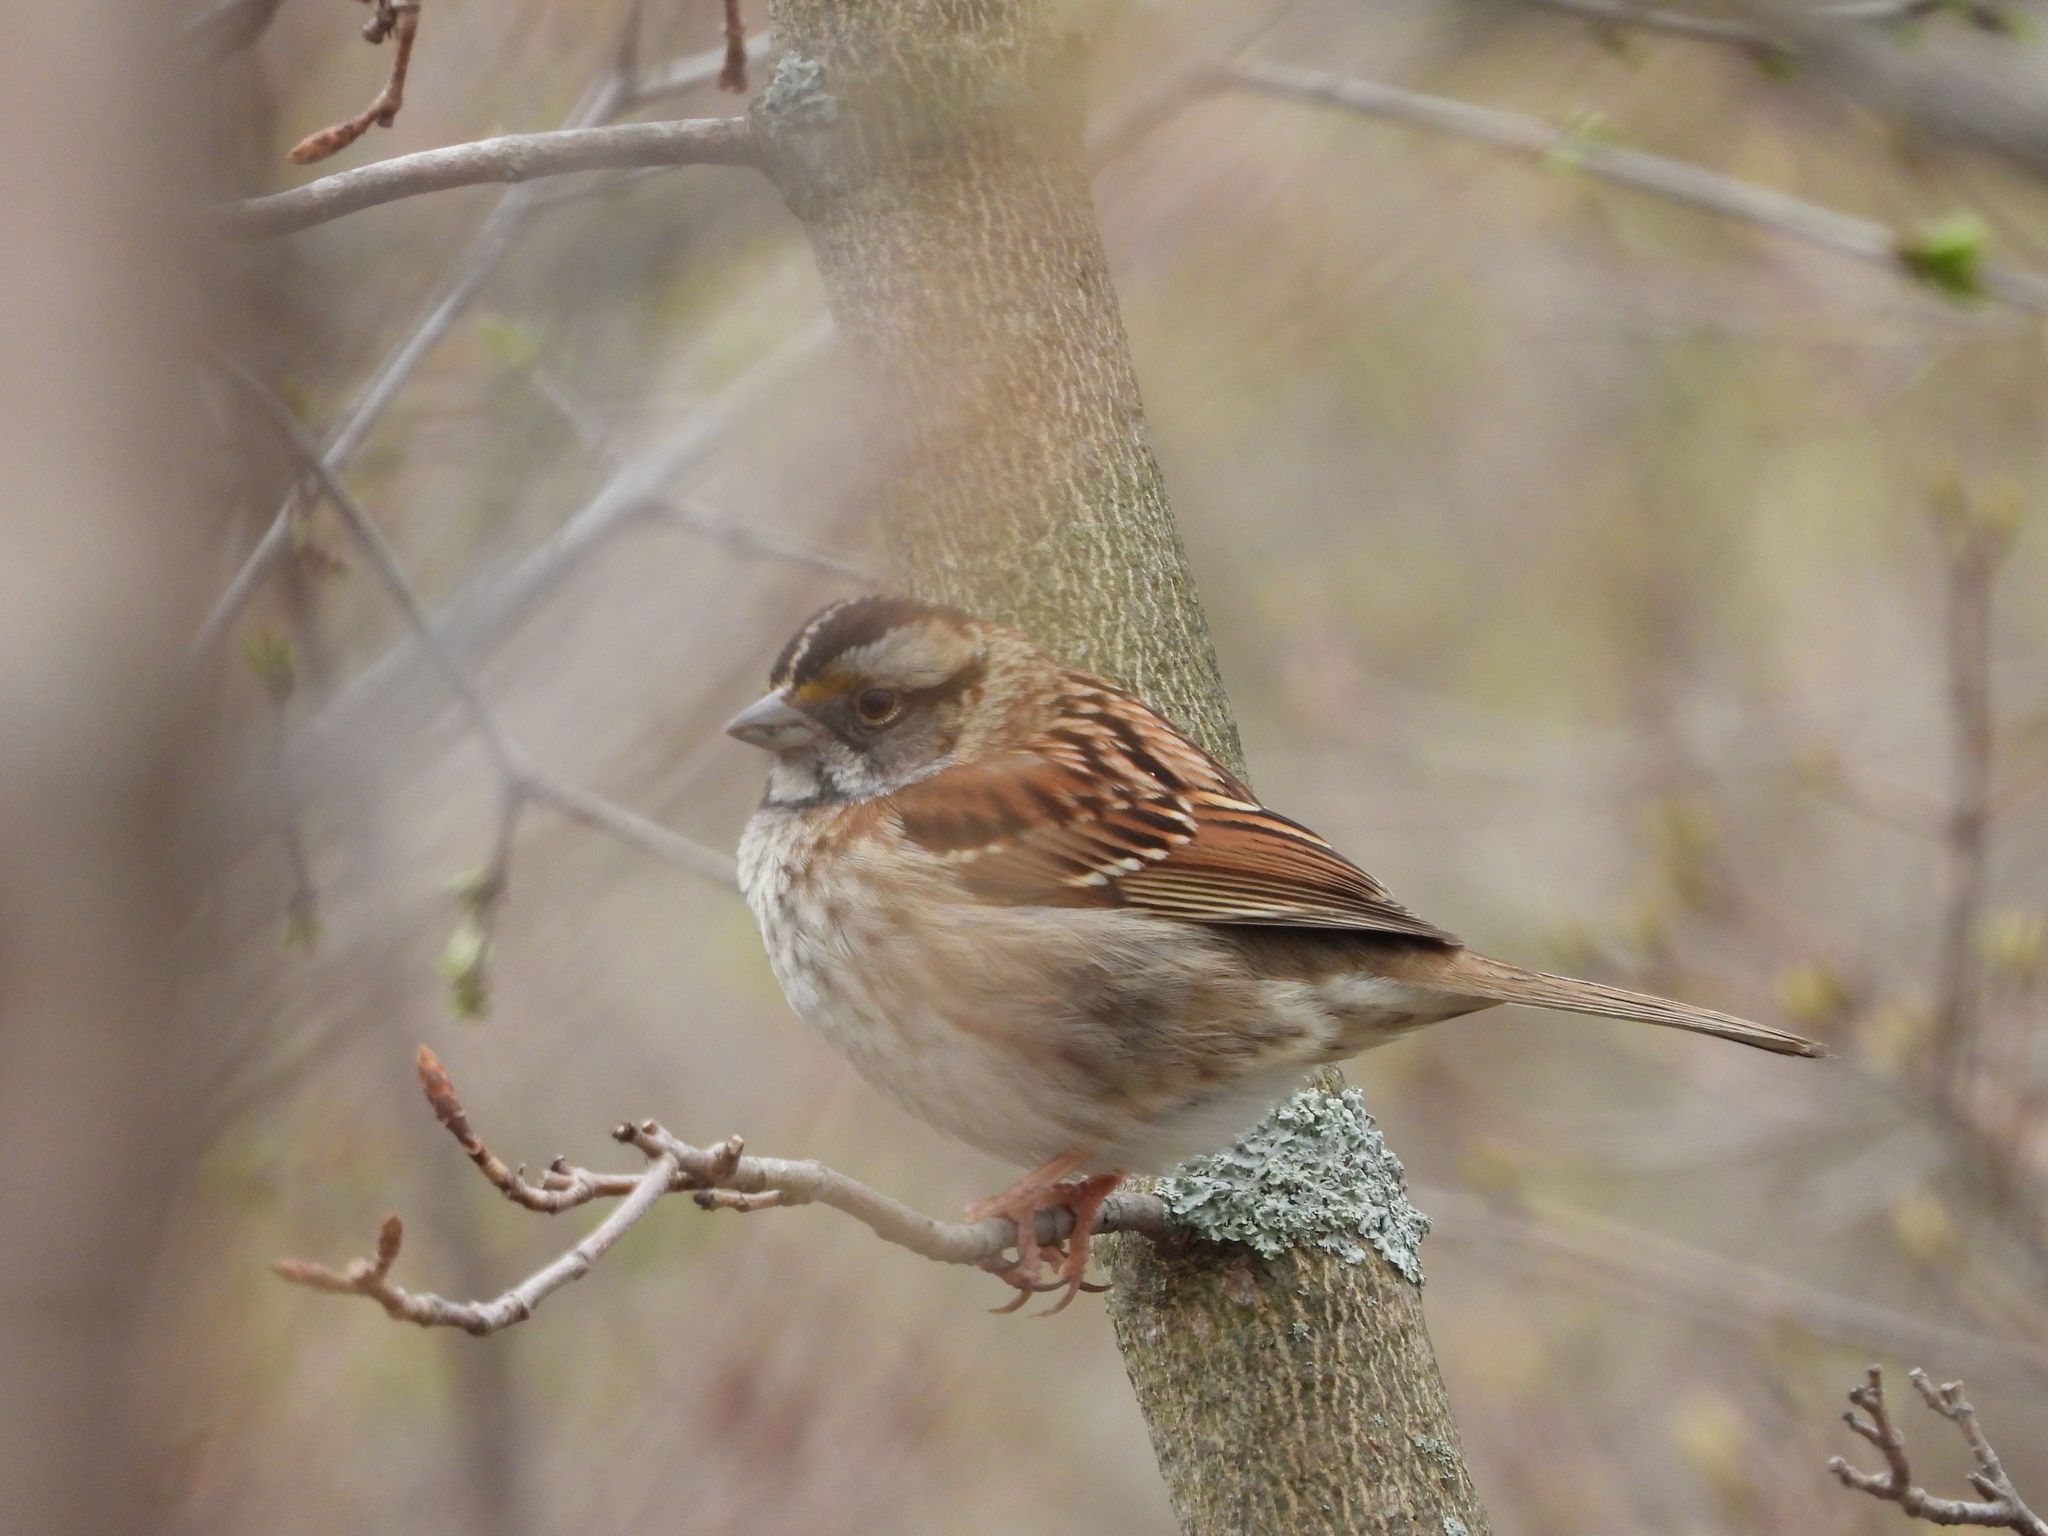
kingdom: Animalia
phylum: Chordata
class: Aves
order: Passeriformes
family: Passerellidae
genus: Zonotrichia
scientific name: Zonotrichia albicollis
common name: White-throated sparrow
